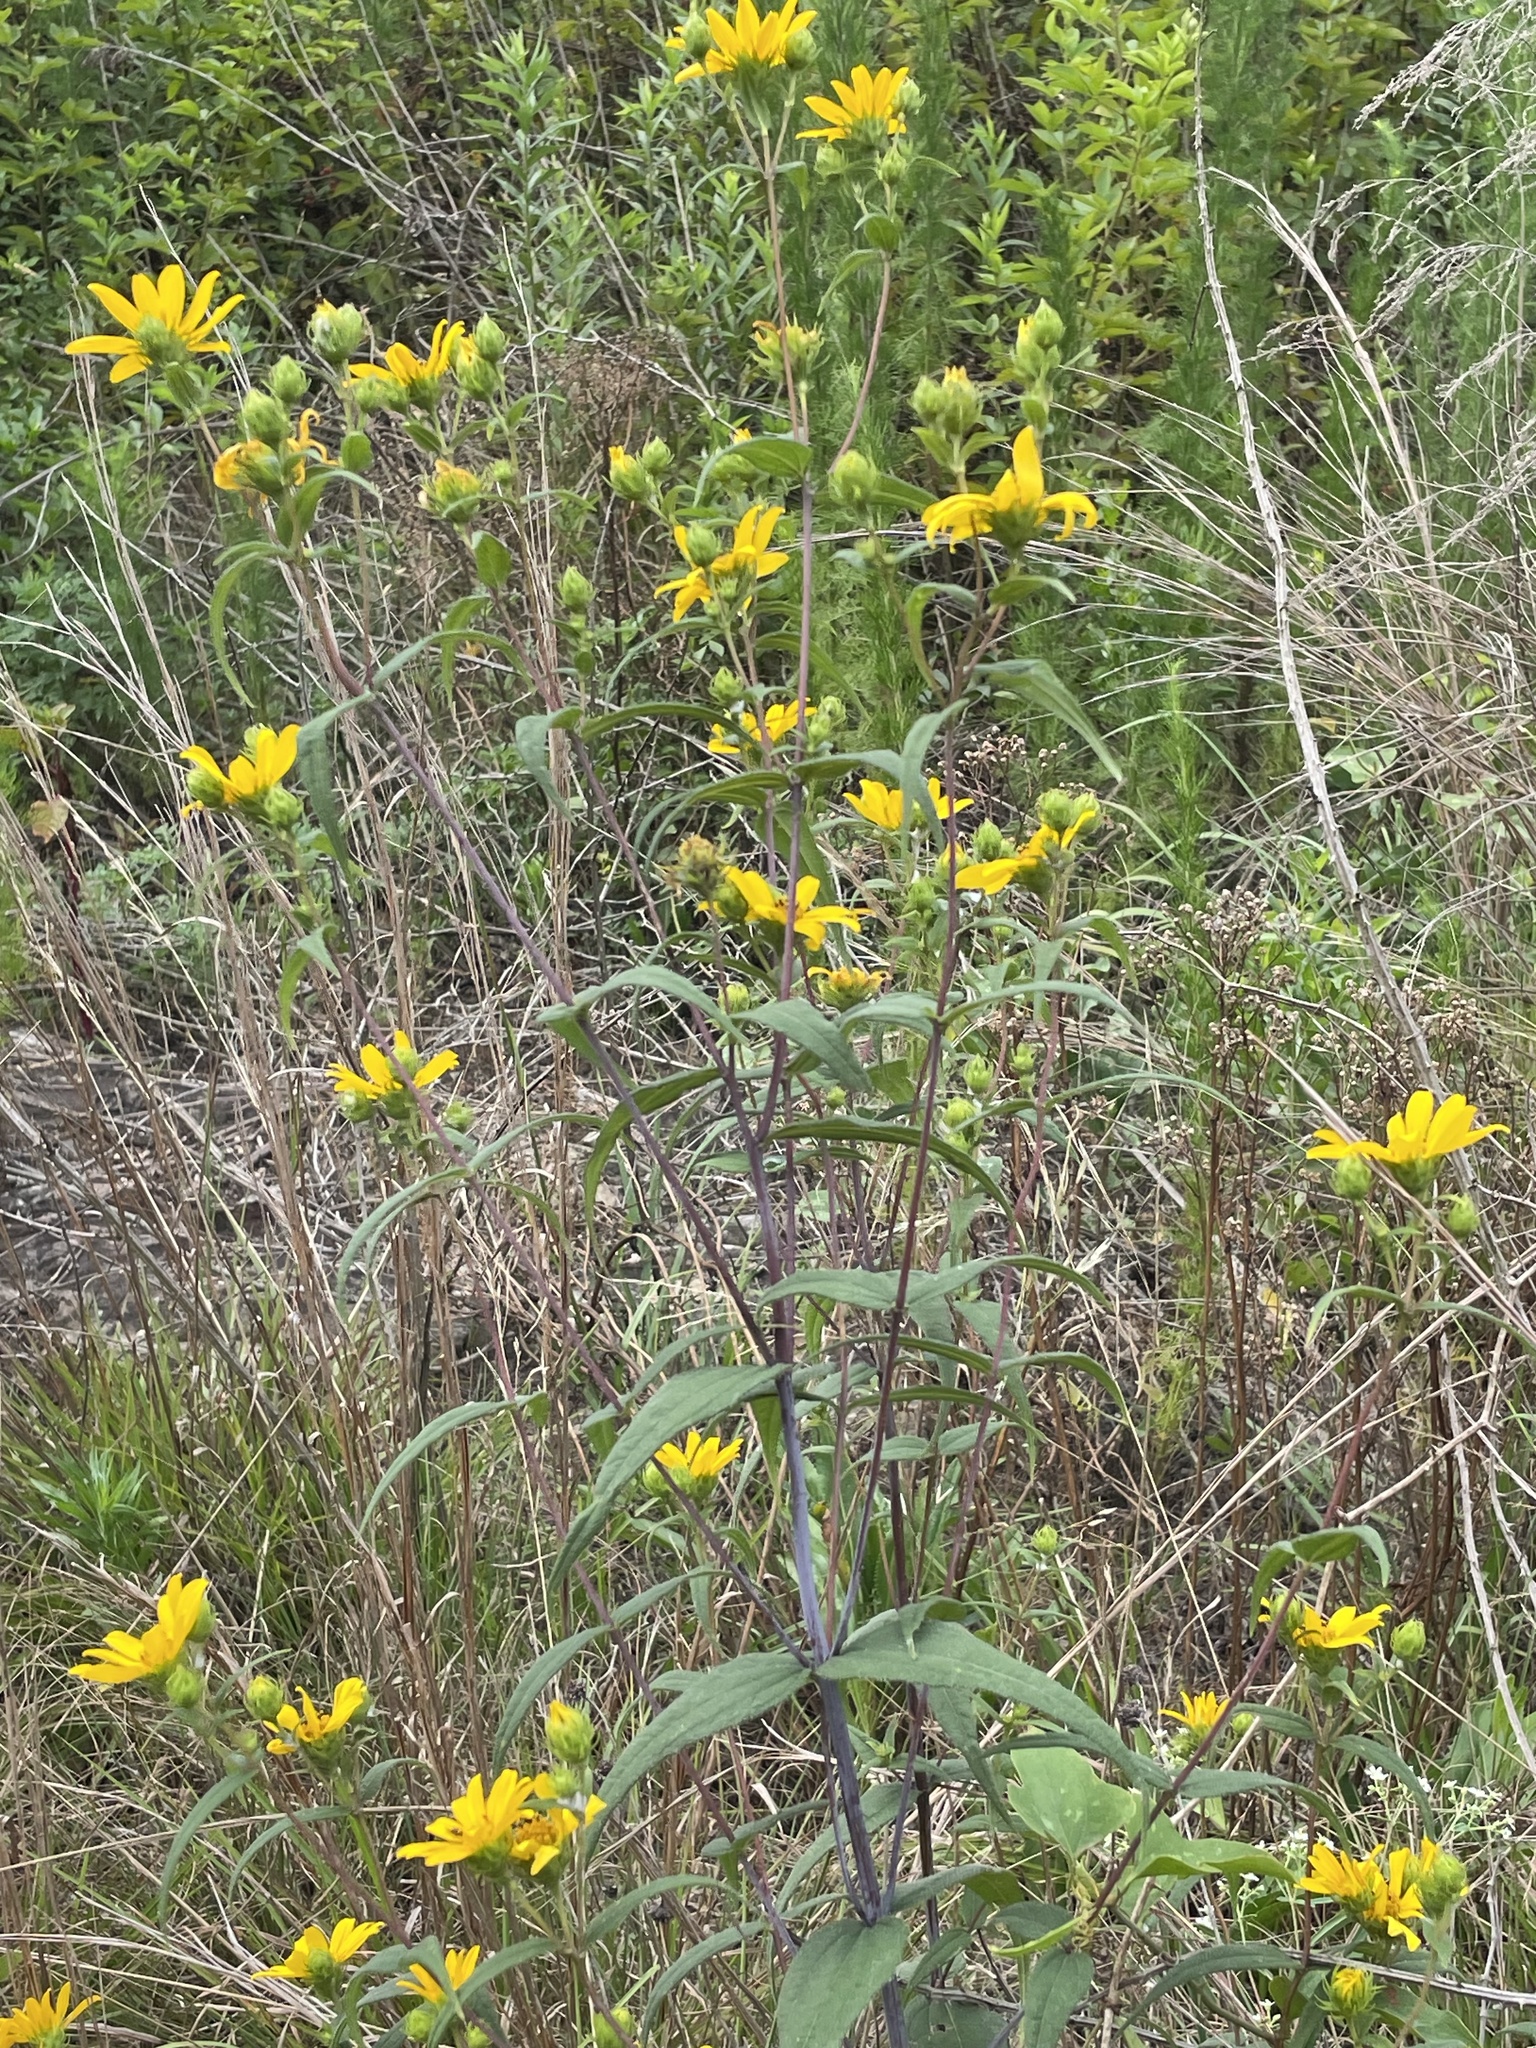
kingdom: Plantae
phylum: Tracheophyta
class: Magnoliopsida
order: Asterales
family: Asteraceae
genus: Helianthus
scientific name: Helianthus divaricatus
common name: Divergent sunflower
